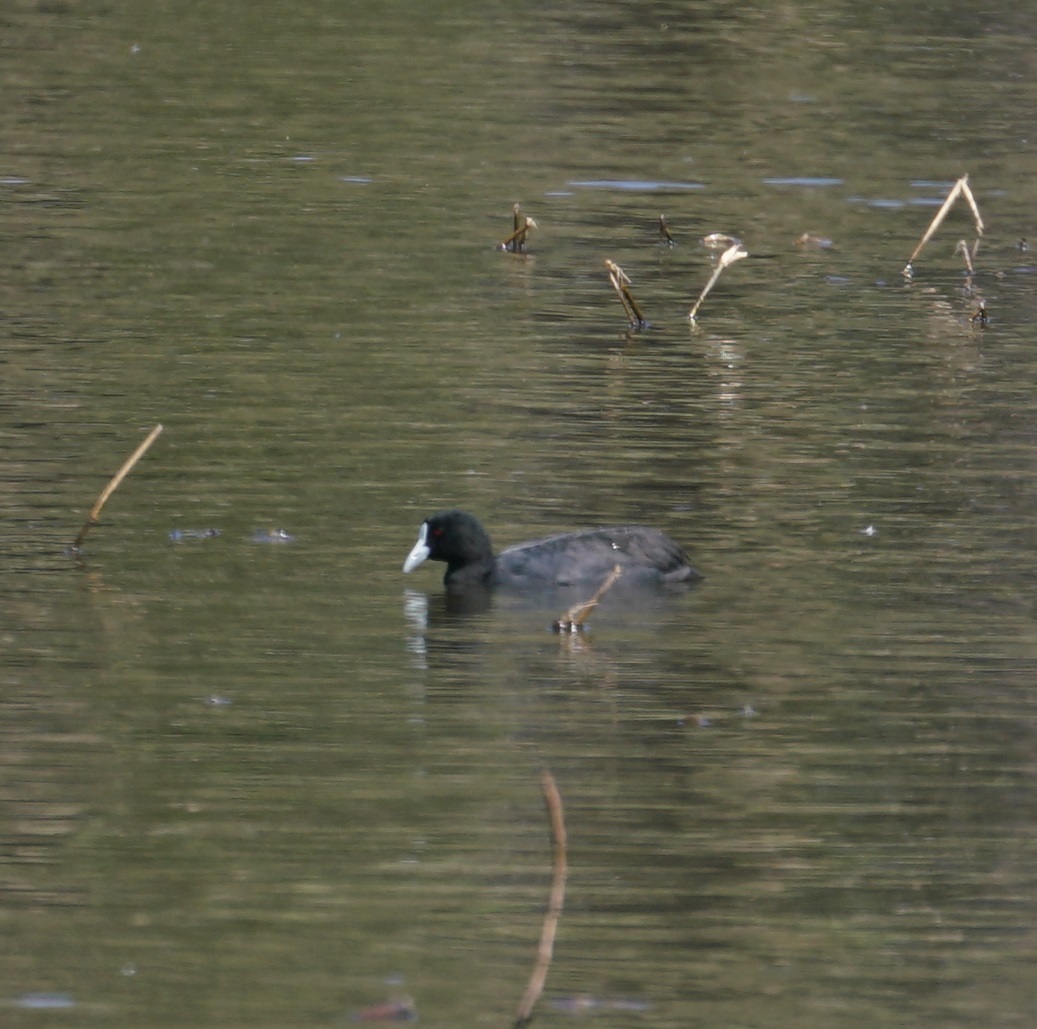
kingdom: Animalia
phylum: Chordata
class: Aves
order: Gruiformes
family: Rallidae
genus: Fulica
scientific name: Fulica atra
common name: Eurasian coot
